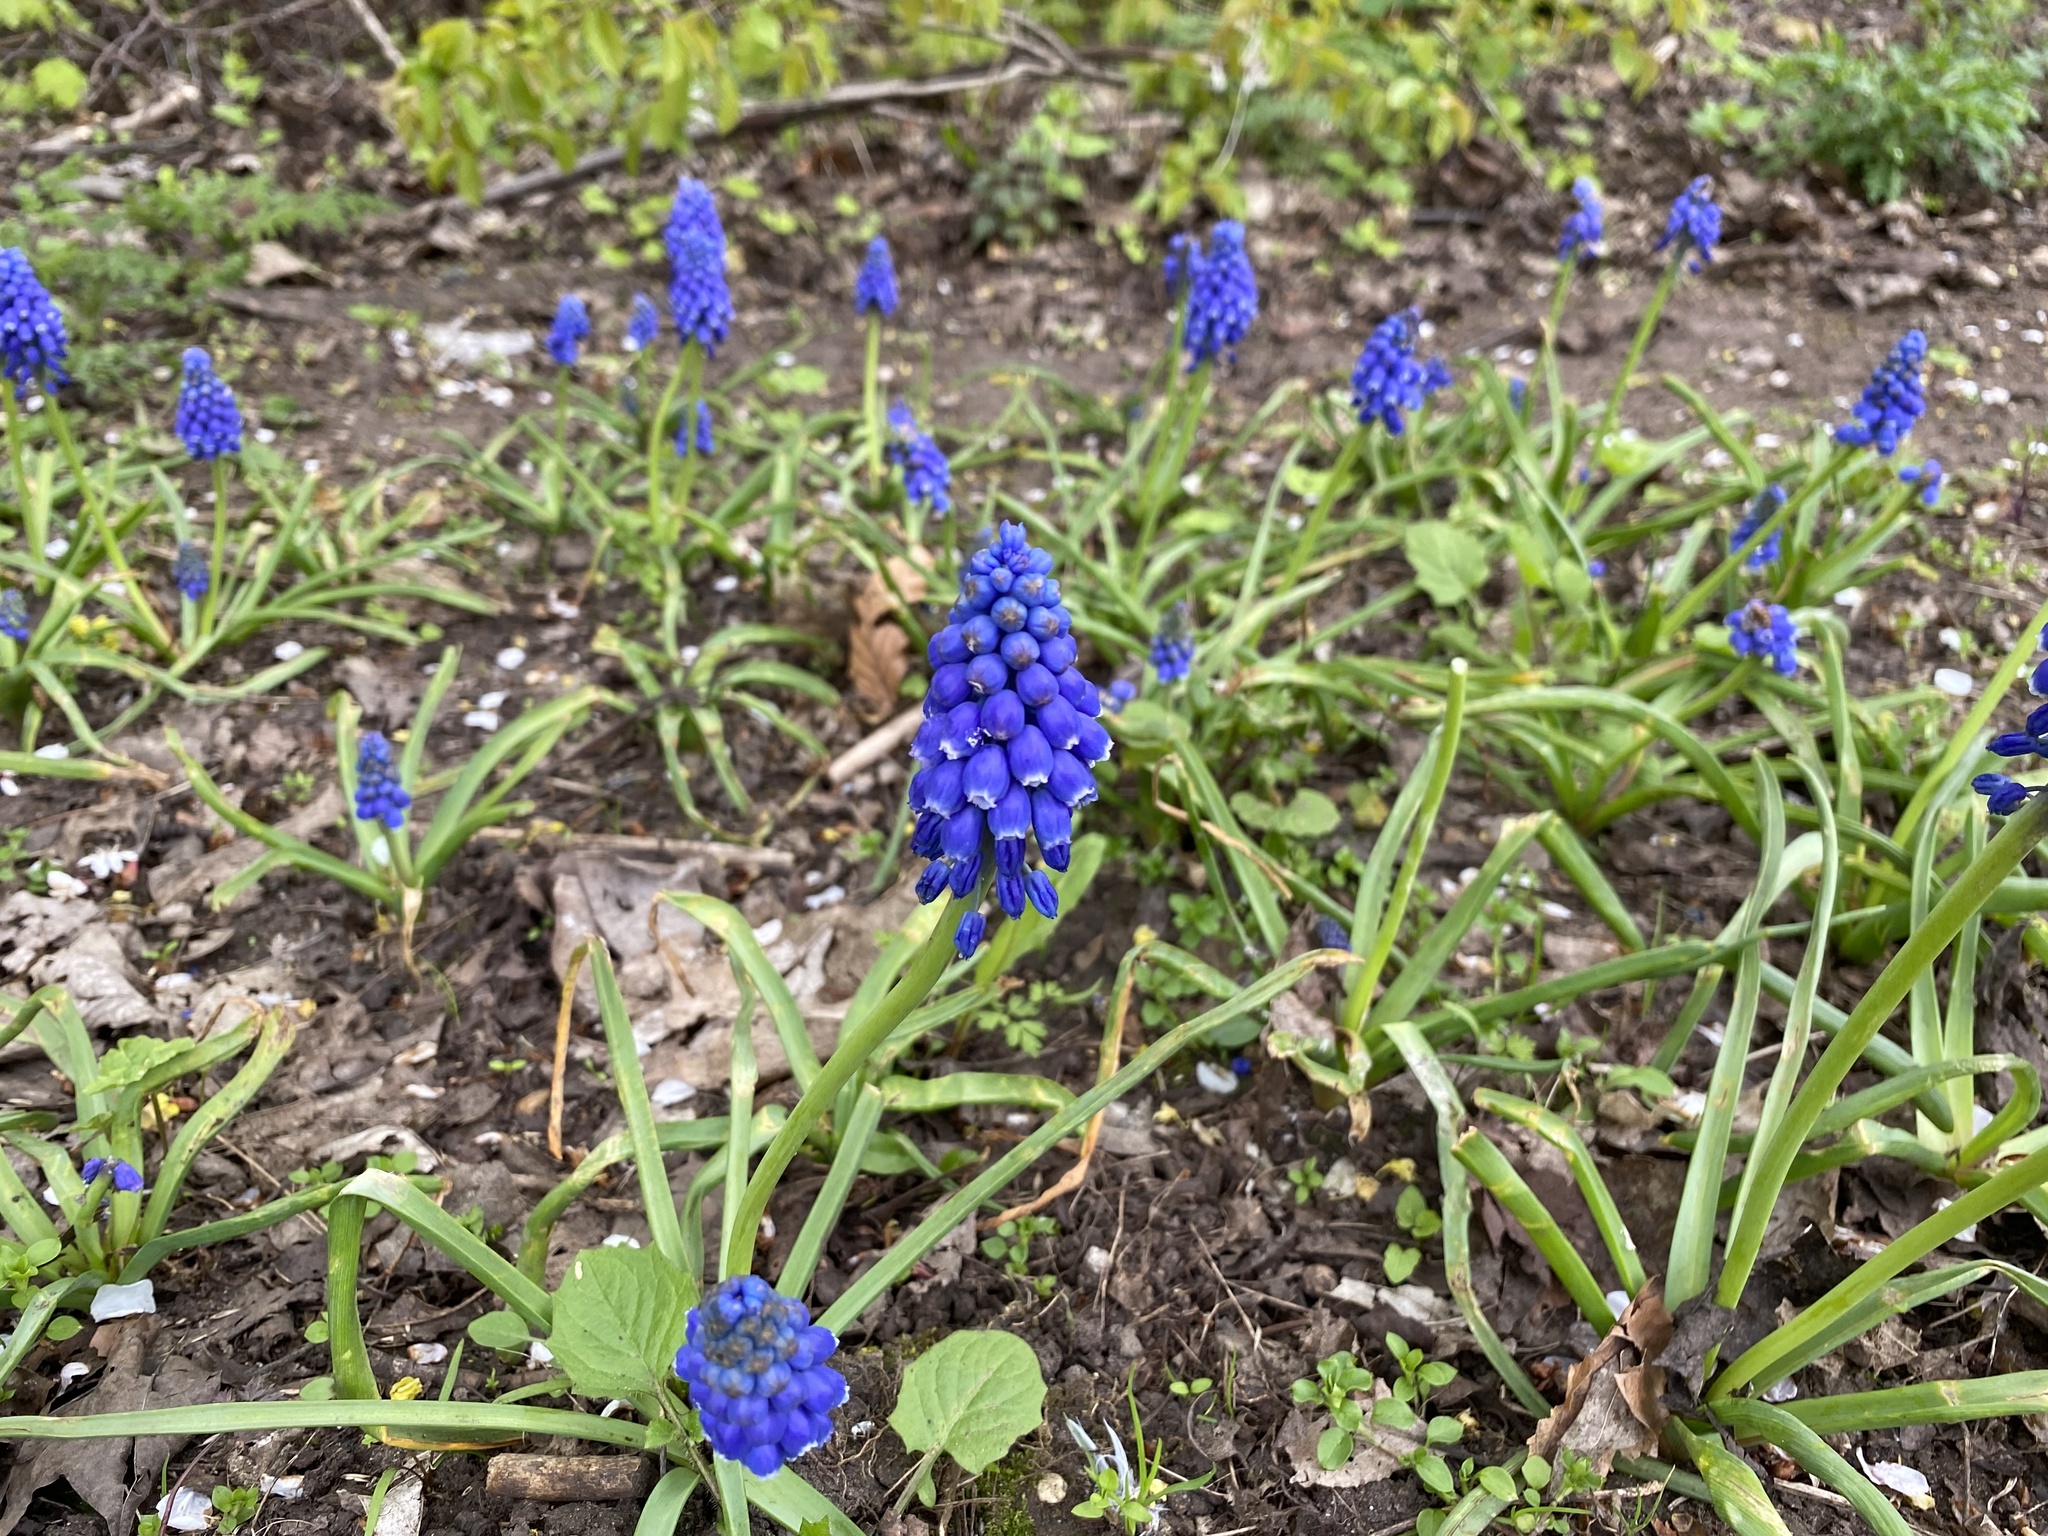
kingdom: Plantae
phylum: Tracheophyta
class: Liliopsida
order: Asparagales
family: Asparagaceae
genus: Muscari
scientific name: Muscari armeniacum
